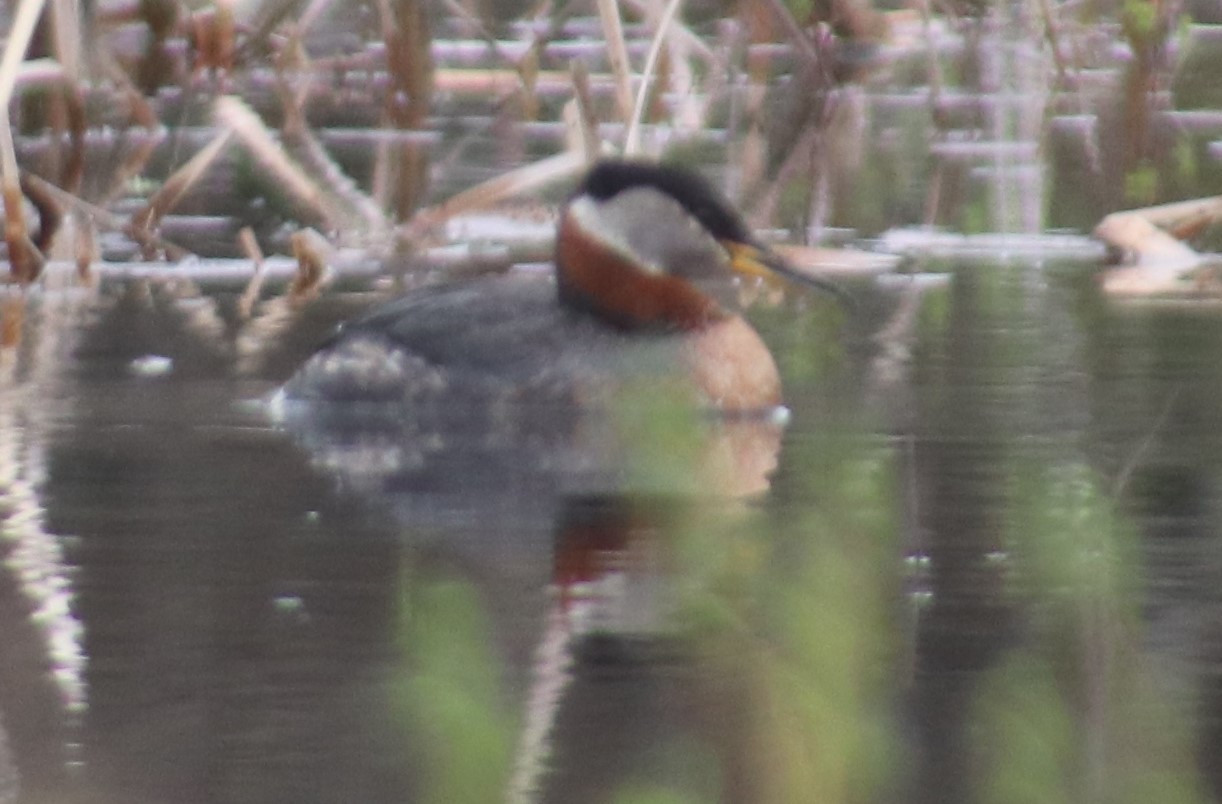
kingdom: Animalia
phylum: Chordata
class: Aves
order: Podicipediformes
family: Podicipedidae
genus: Podiceps
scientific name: Podiceps grisegena
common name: Red-necked grebe
